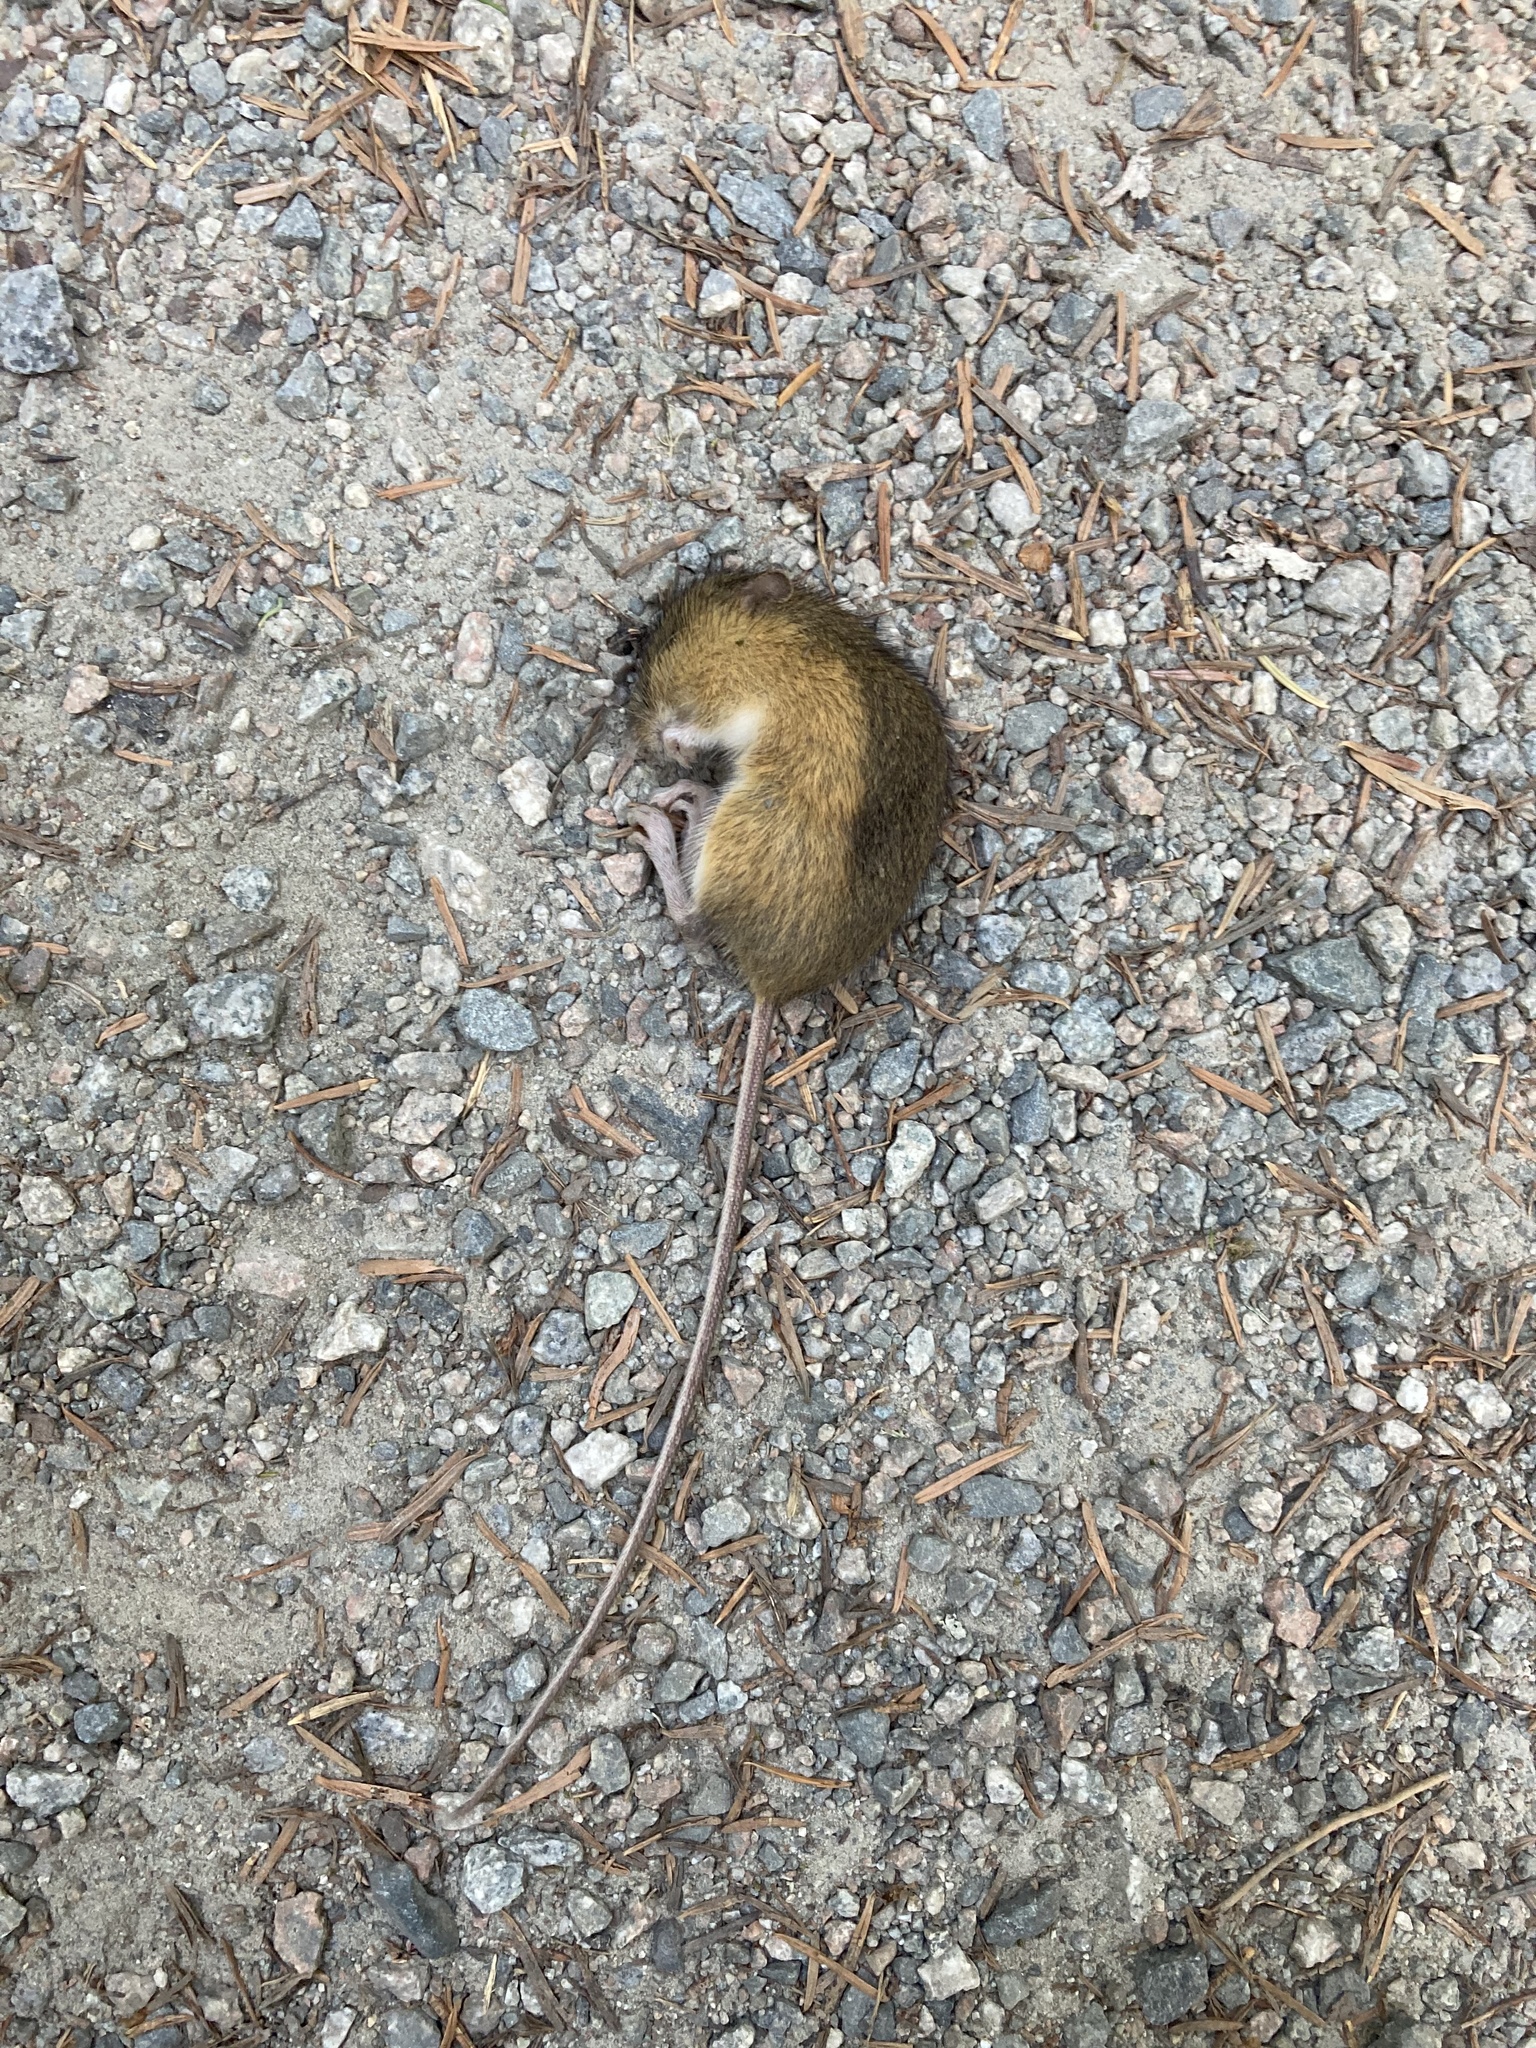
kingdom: Animalia
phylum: Chordata
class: Mammalia
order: Rodentia
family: Dipodidae
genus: Zapus
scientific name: Zapus trinotatus
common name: Pacific jumping mouse
